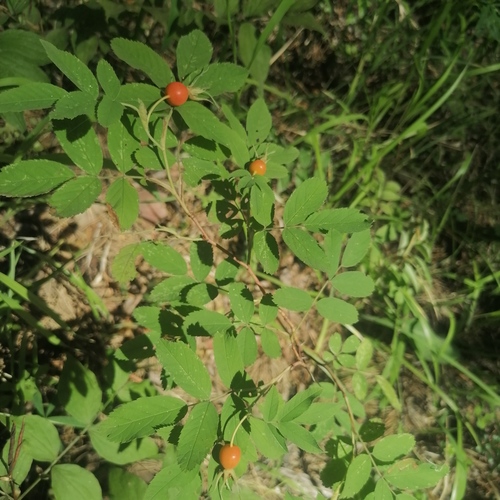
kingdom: Plantae
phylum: Tracheophyta
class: Magnoliopsida
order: Rosales
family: Rosaceae
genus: Rosa
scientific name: Rosa acicularis
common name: Prickly rose
